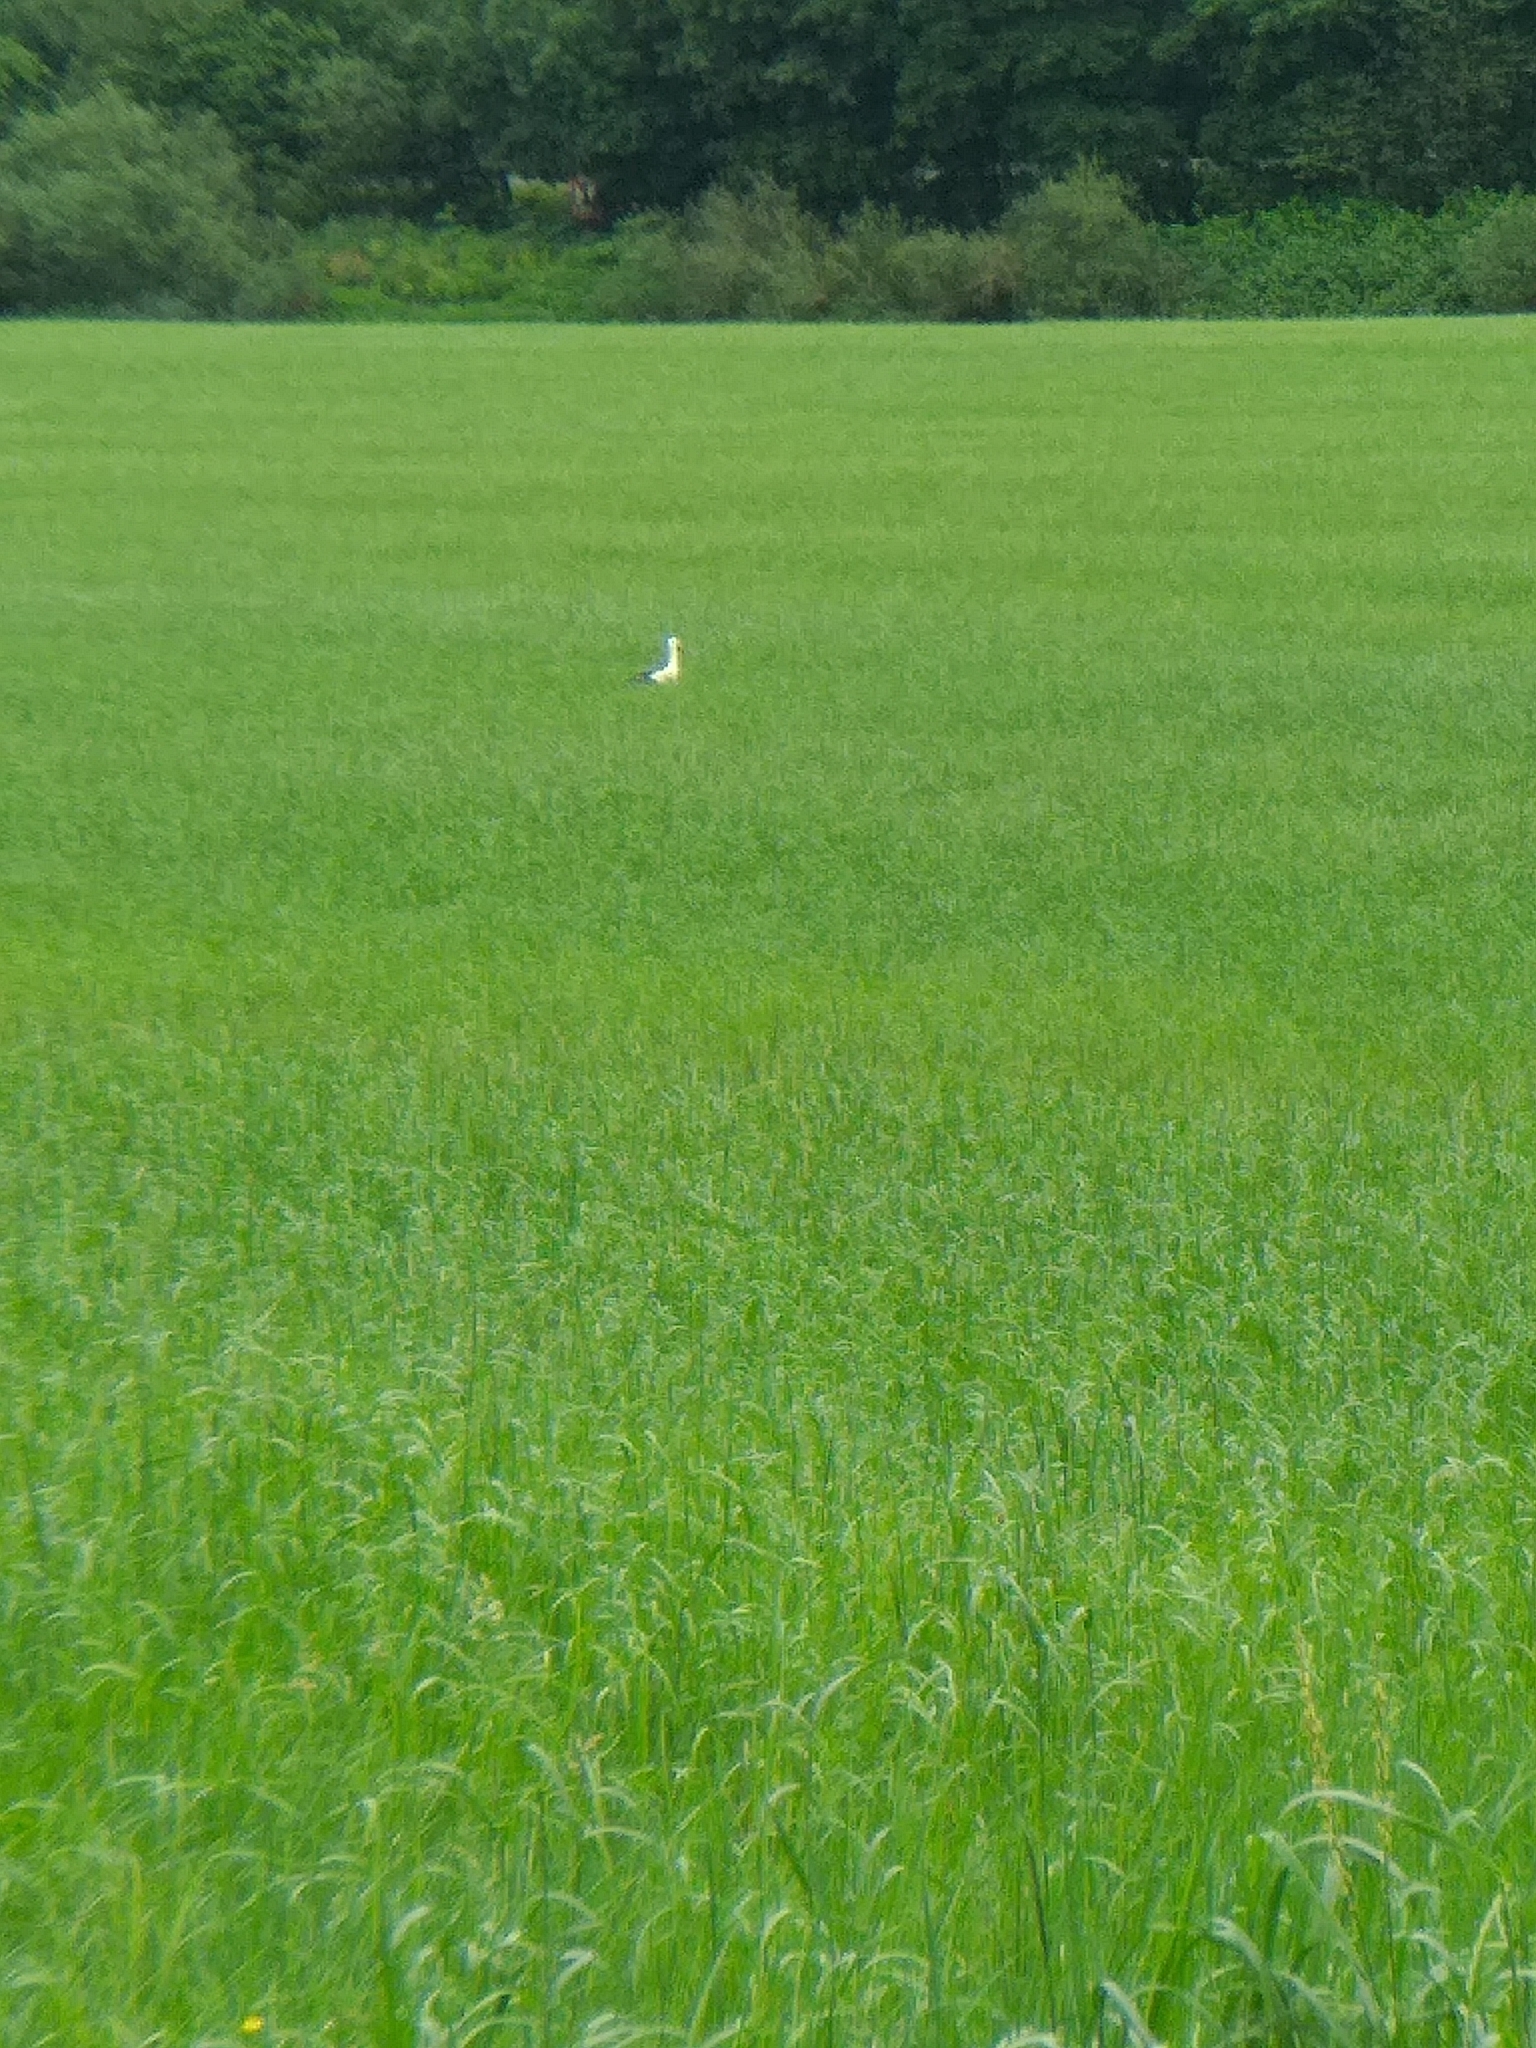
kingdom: Animalia
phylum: Chordata
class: Aves
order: Ciconiiformes
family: Ciconiidae
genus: Ciconia
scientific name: Ciconia ciconia
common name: White stork
